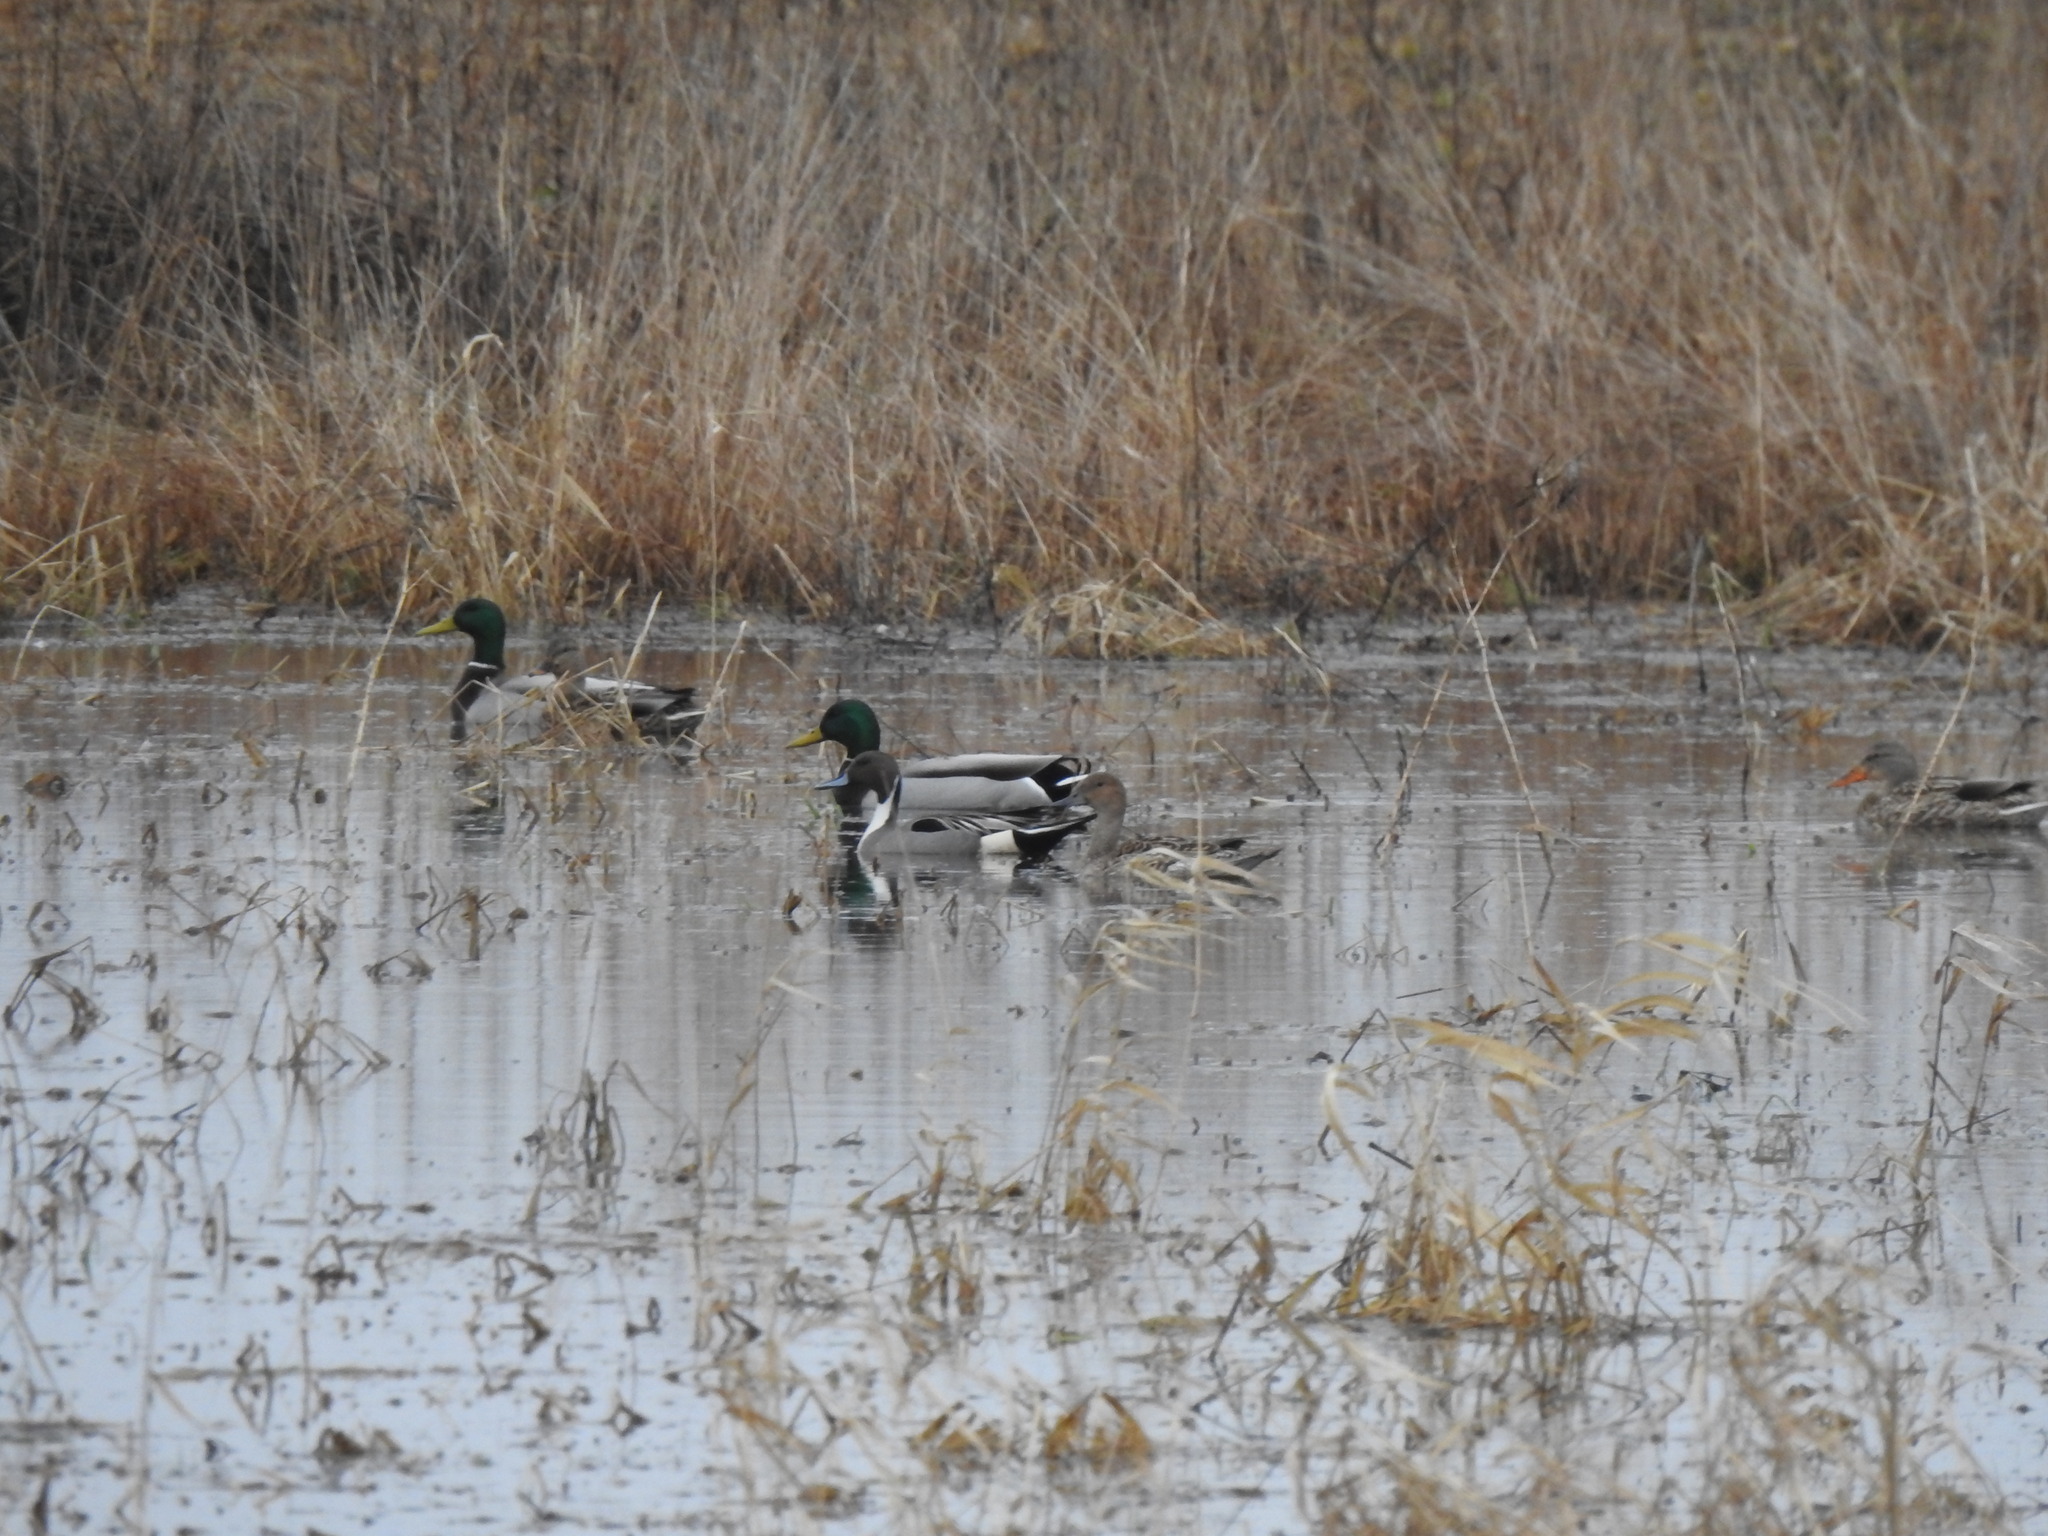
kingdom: Animalia
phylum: Chordata
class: Aves
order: Anseriformes
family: Anatidae
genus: Anas
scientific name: Anas acuta
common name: Northern pintail
